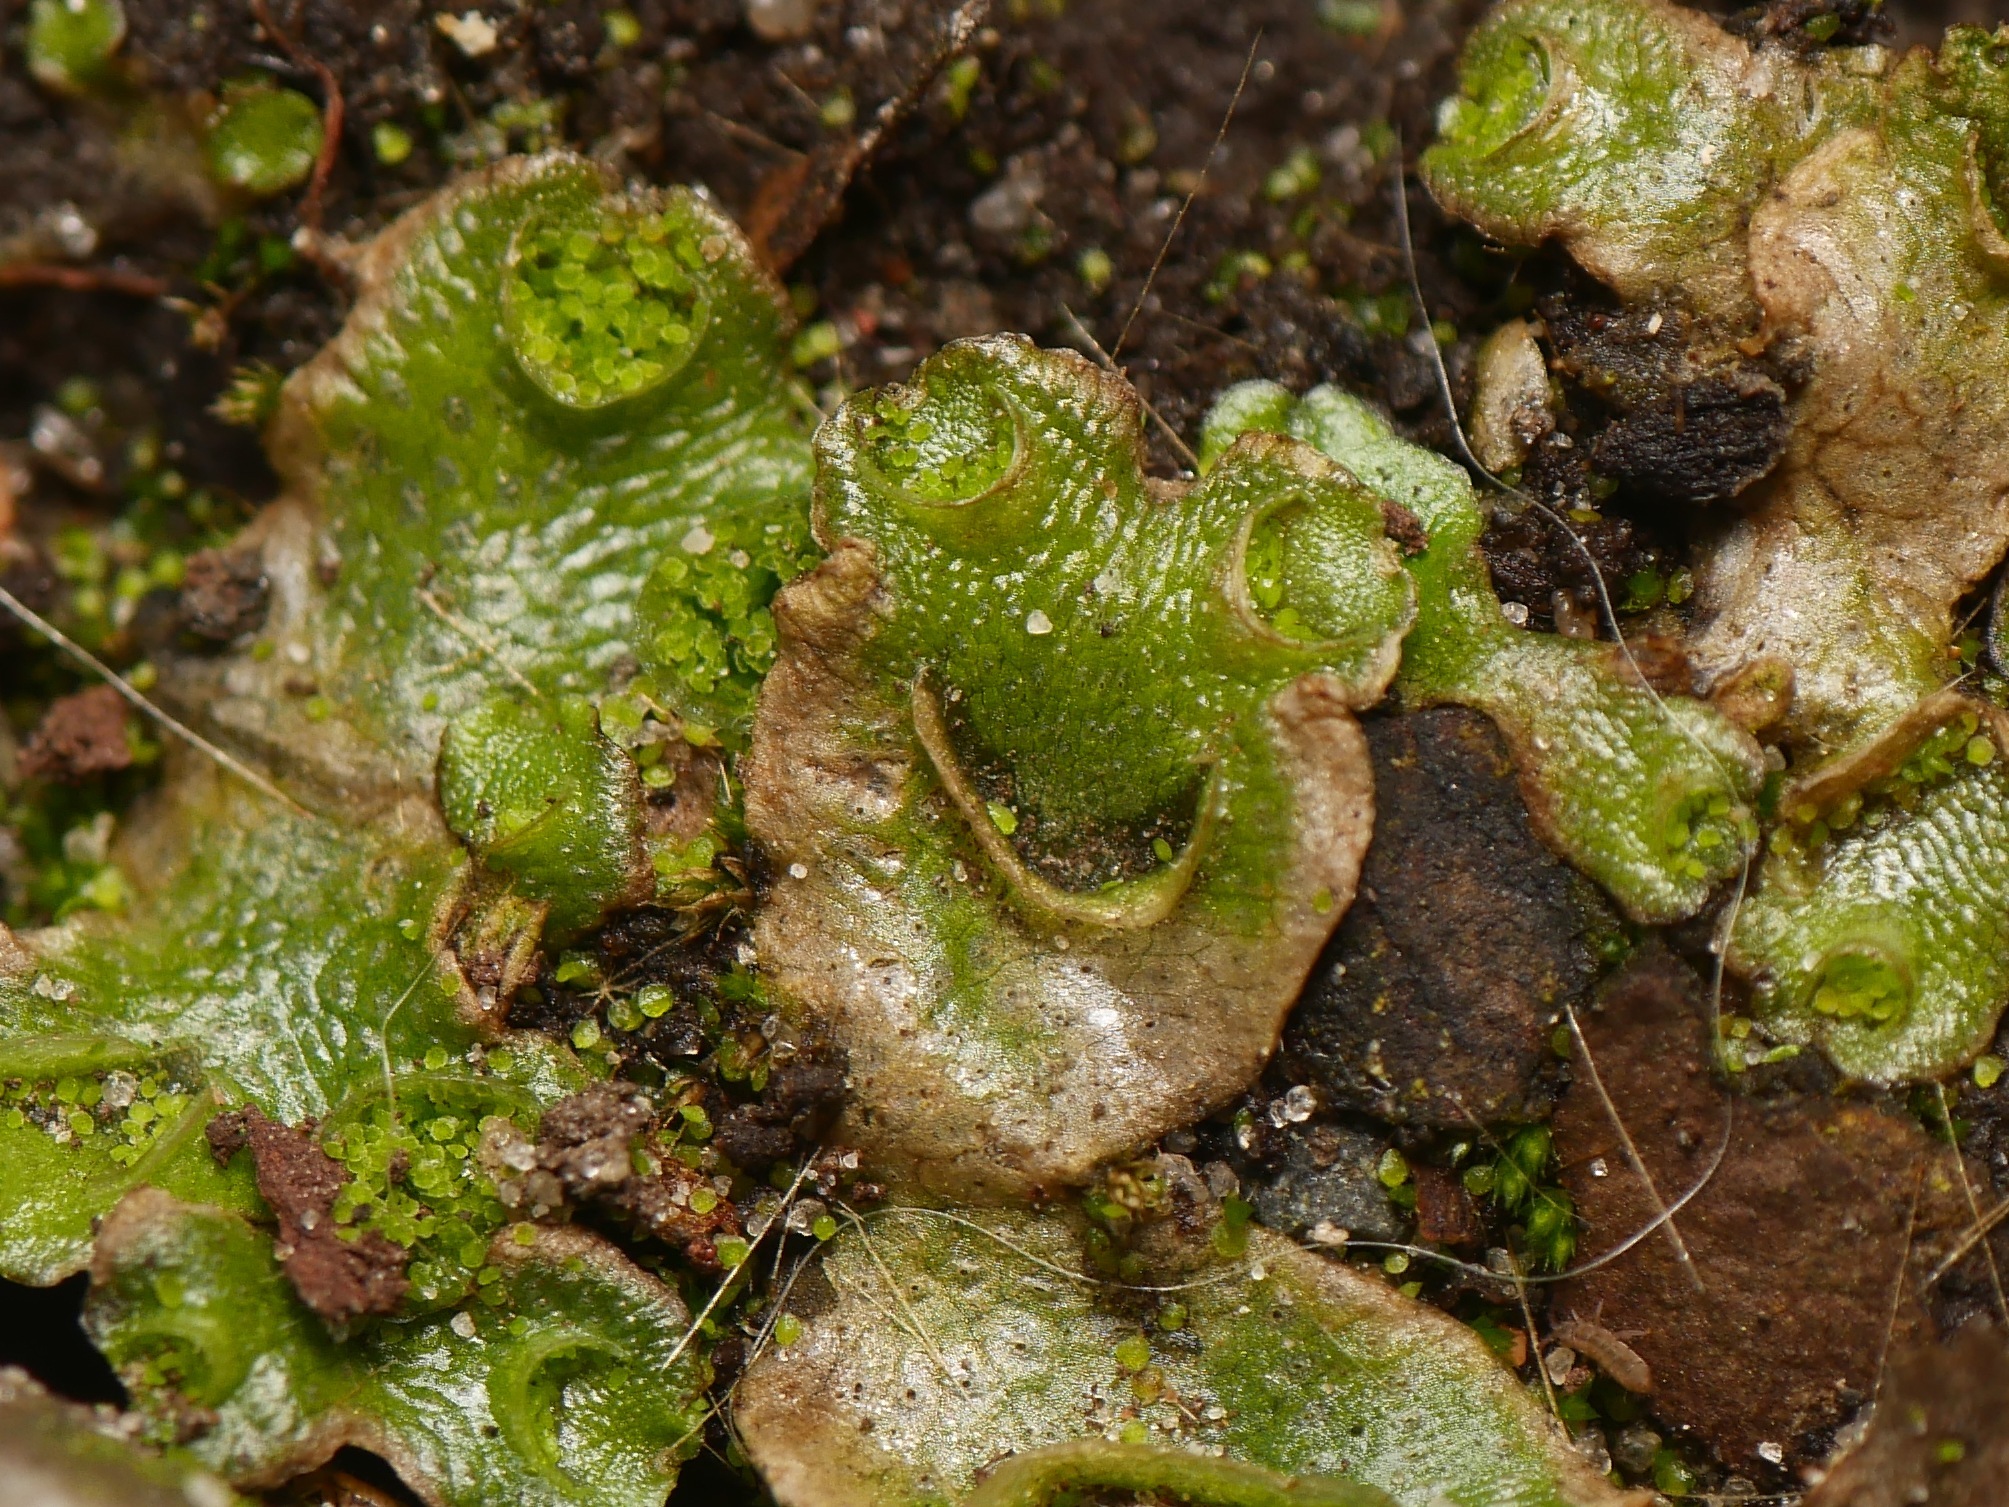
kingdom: Plantae
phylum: Marchantiophyta
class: Marchantiopsida
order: Lunulariales
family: Lunulariaceae
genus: Lunularia
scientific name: Lunularia cruciata
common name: Crescent-cup liverwort
